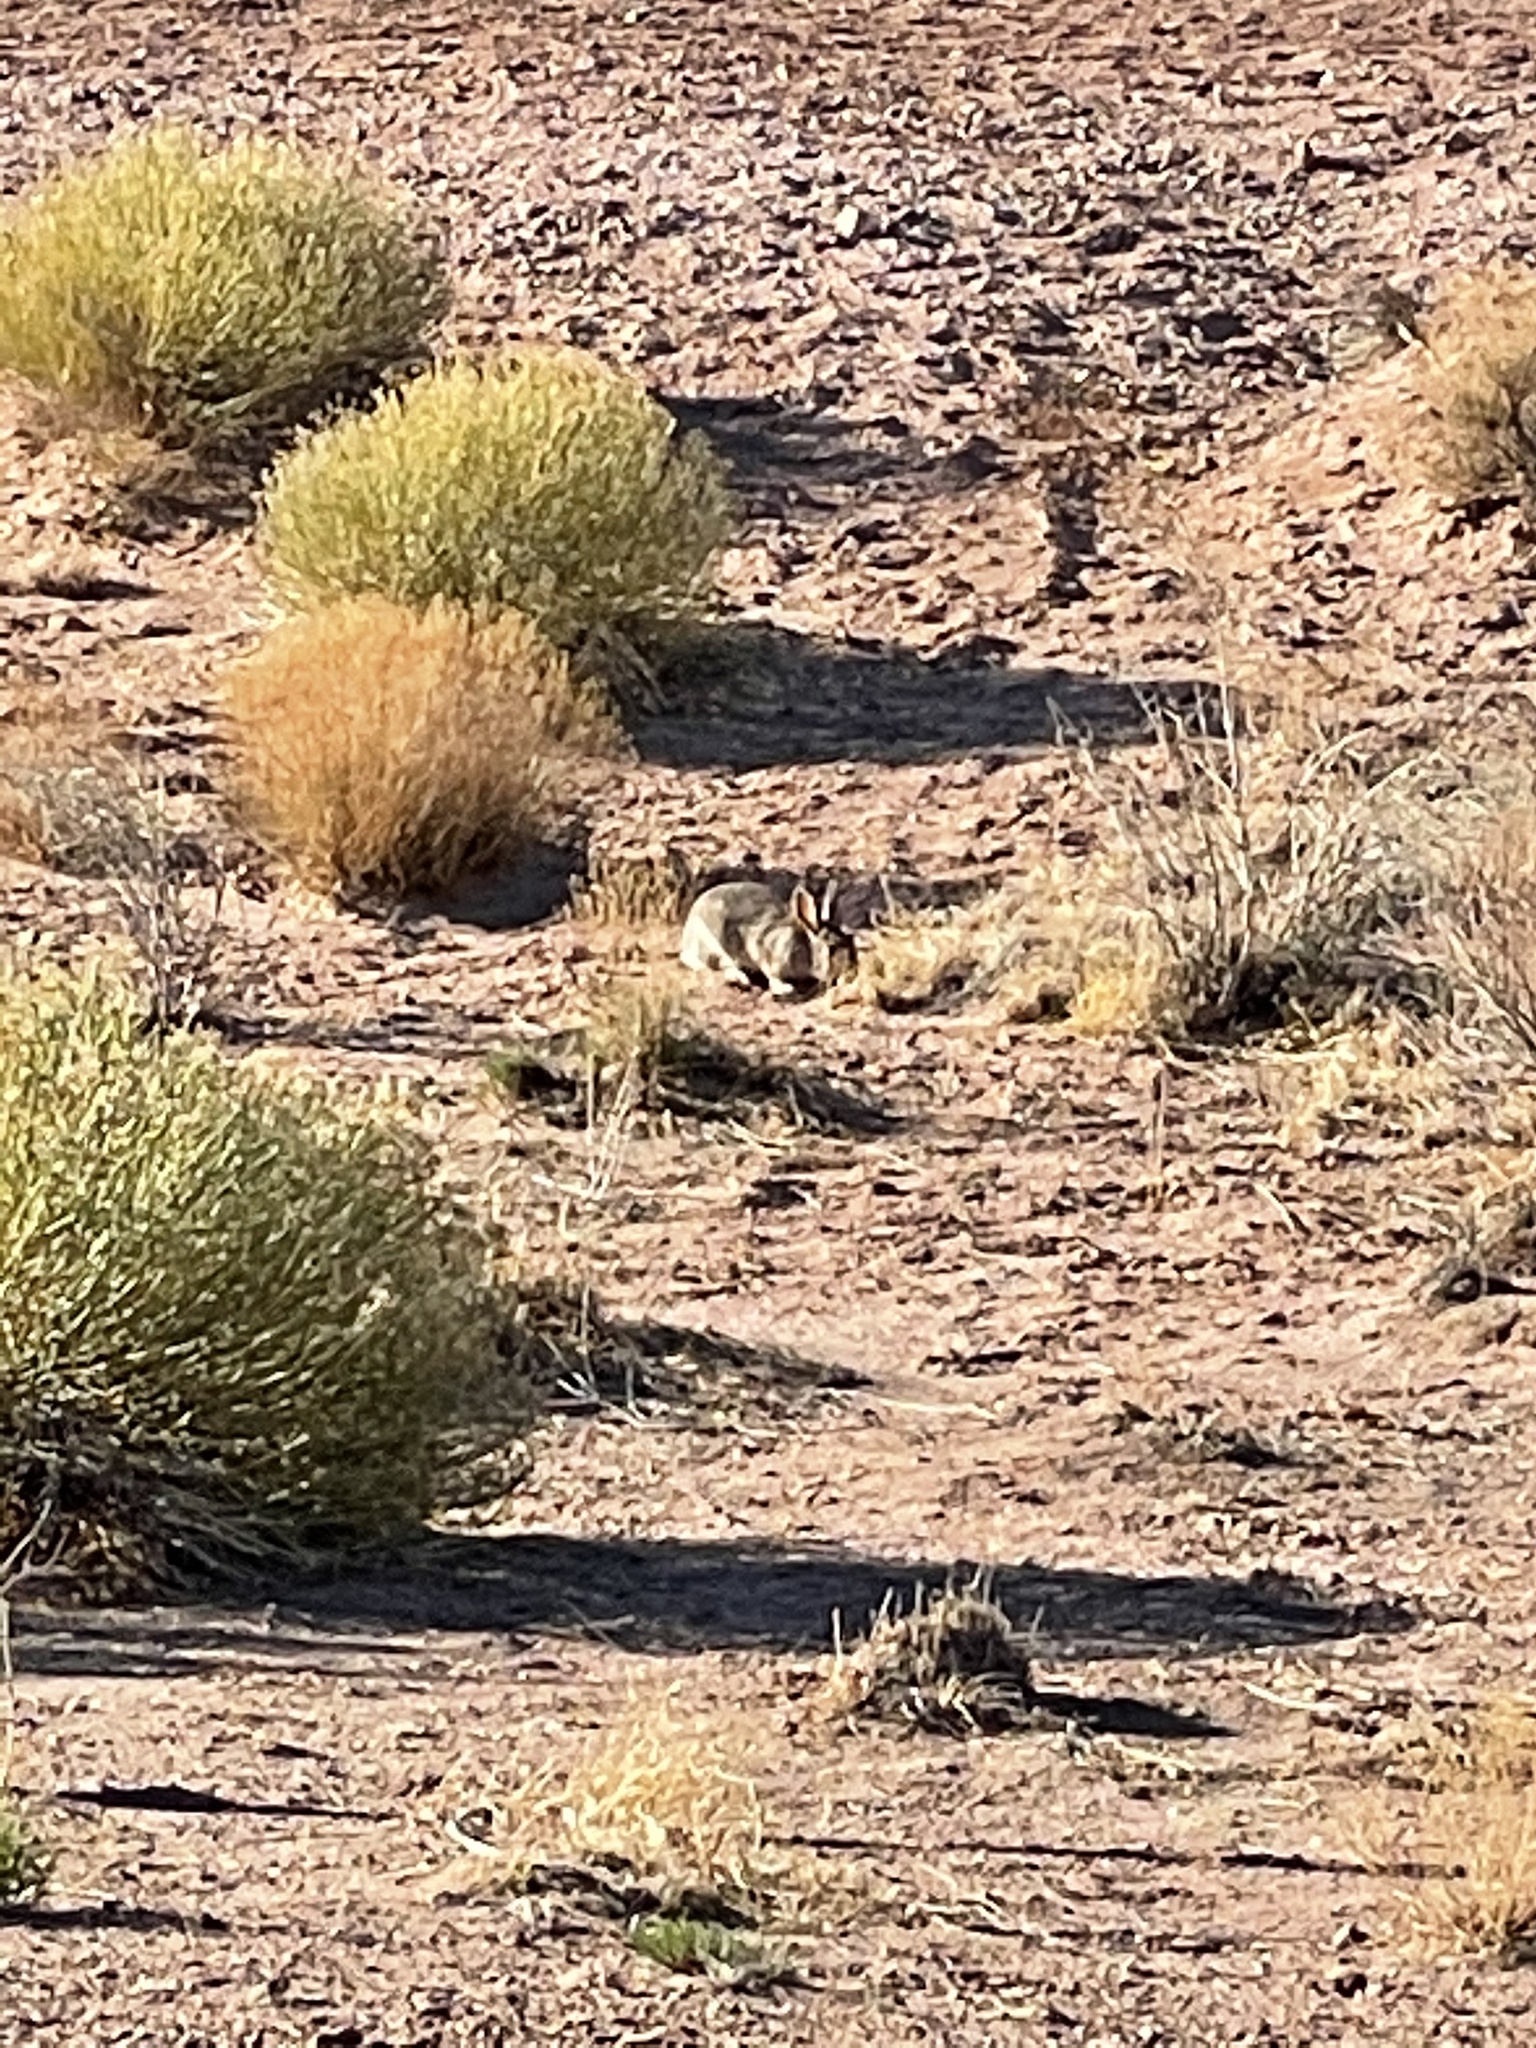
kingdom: Animalia
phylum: Chordata
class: Mammalia
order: Lagomorpha
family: Leporidae
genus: Sylvilagus
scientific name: Sylvilagus audubonii
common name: Desert cottontail
